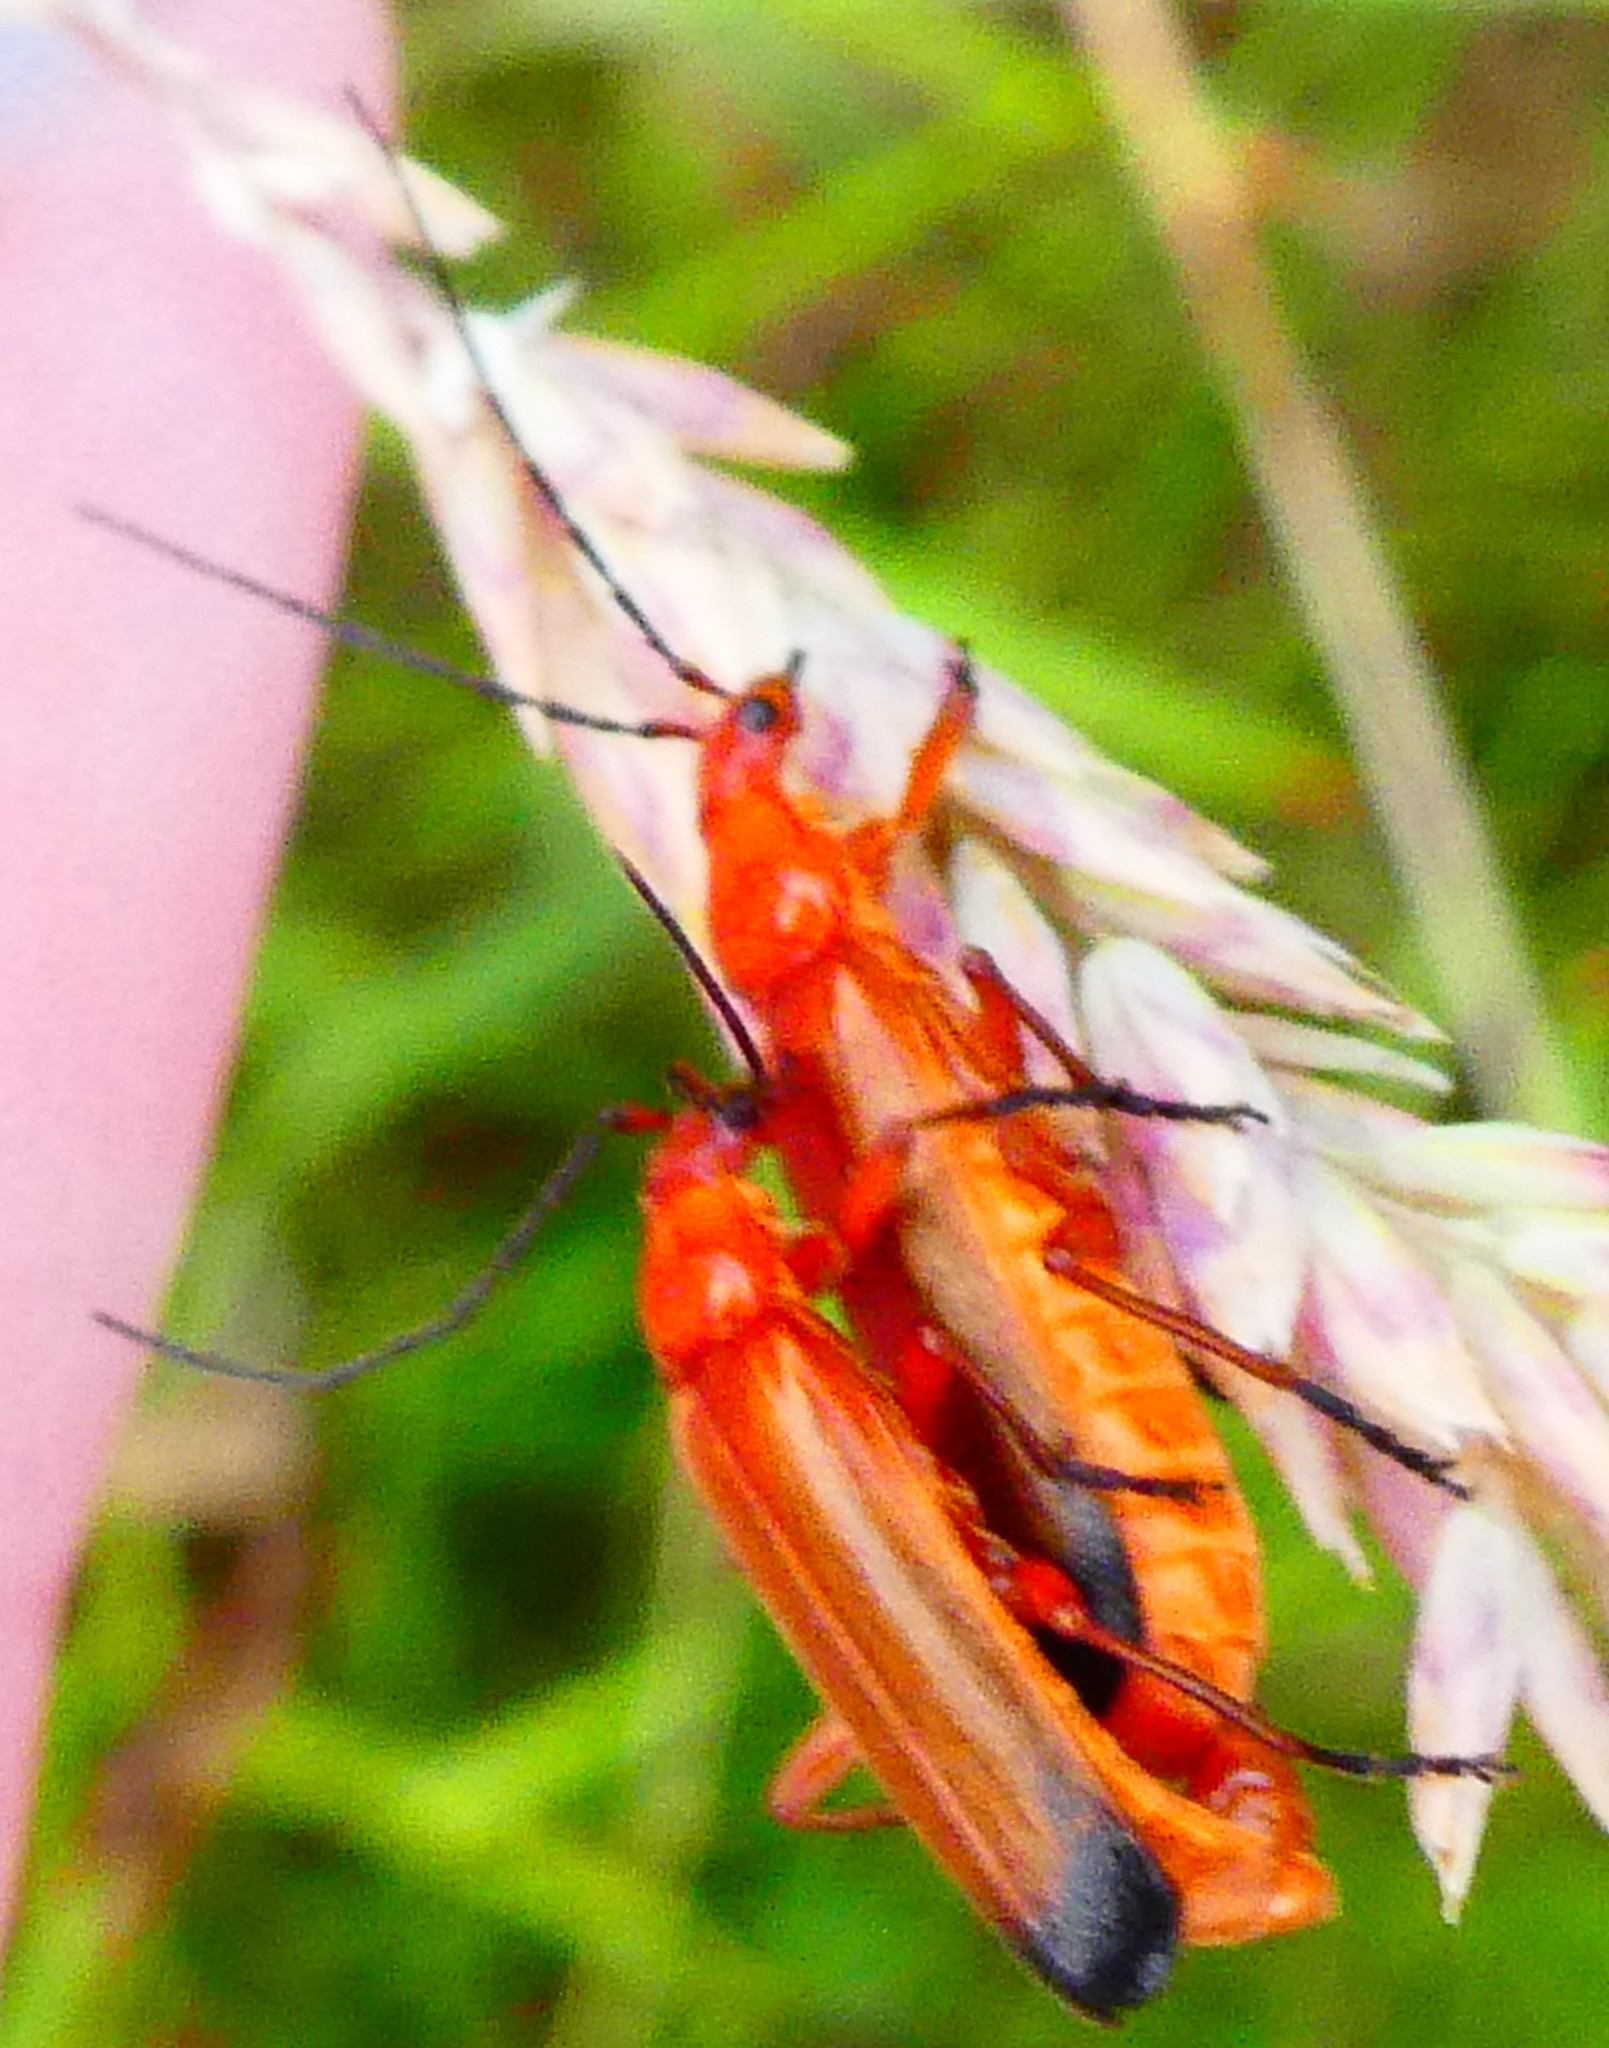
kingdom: Animalia
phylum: Arthropoda
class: Insecta
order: Coleoptera
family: Cantharidae
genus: Rhagonycha
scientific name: Rhagonycha fulva
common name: Common red soldier beetle
